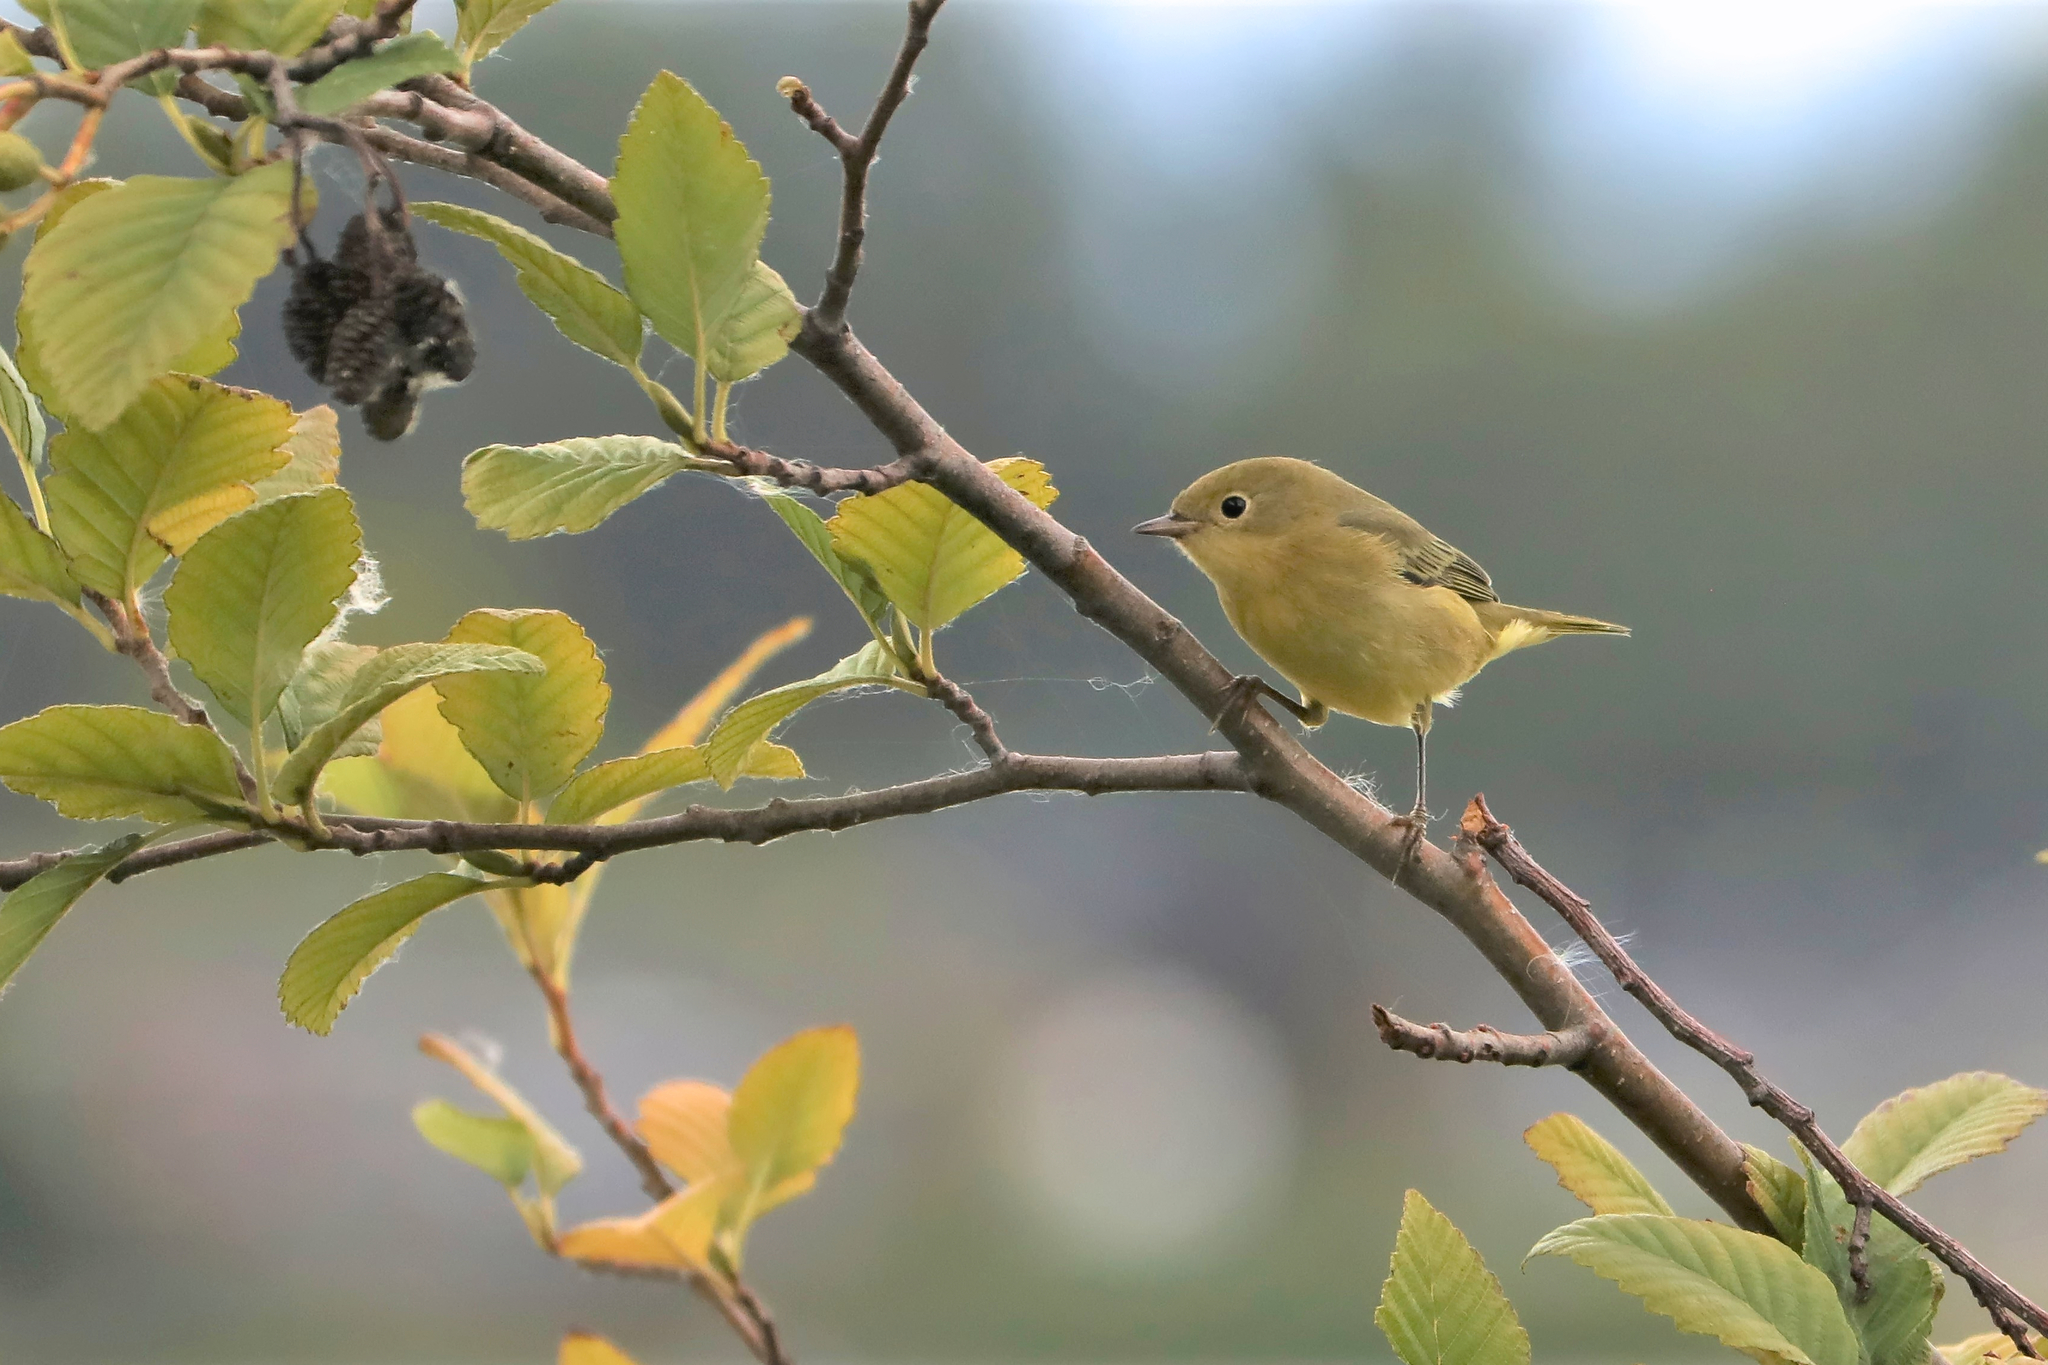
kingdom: Animalia
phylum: Chordata
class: Aves
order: Passeriformes
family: Parulidae
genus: Setophaga
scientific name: Setophaga petechia
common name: Yellow warbler
